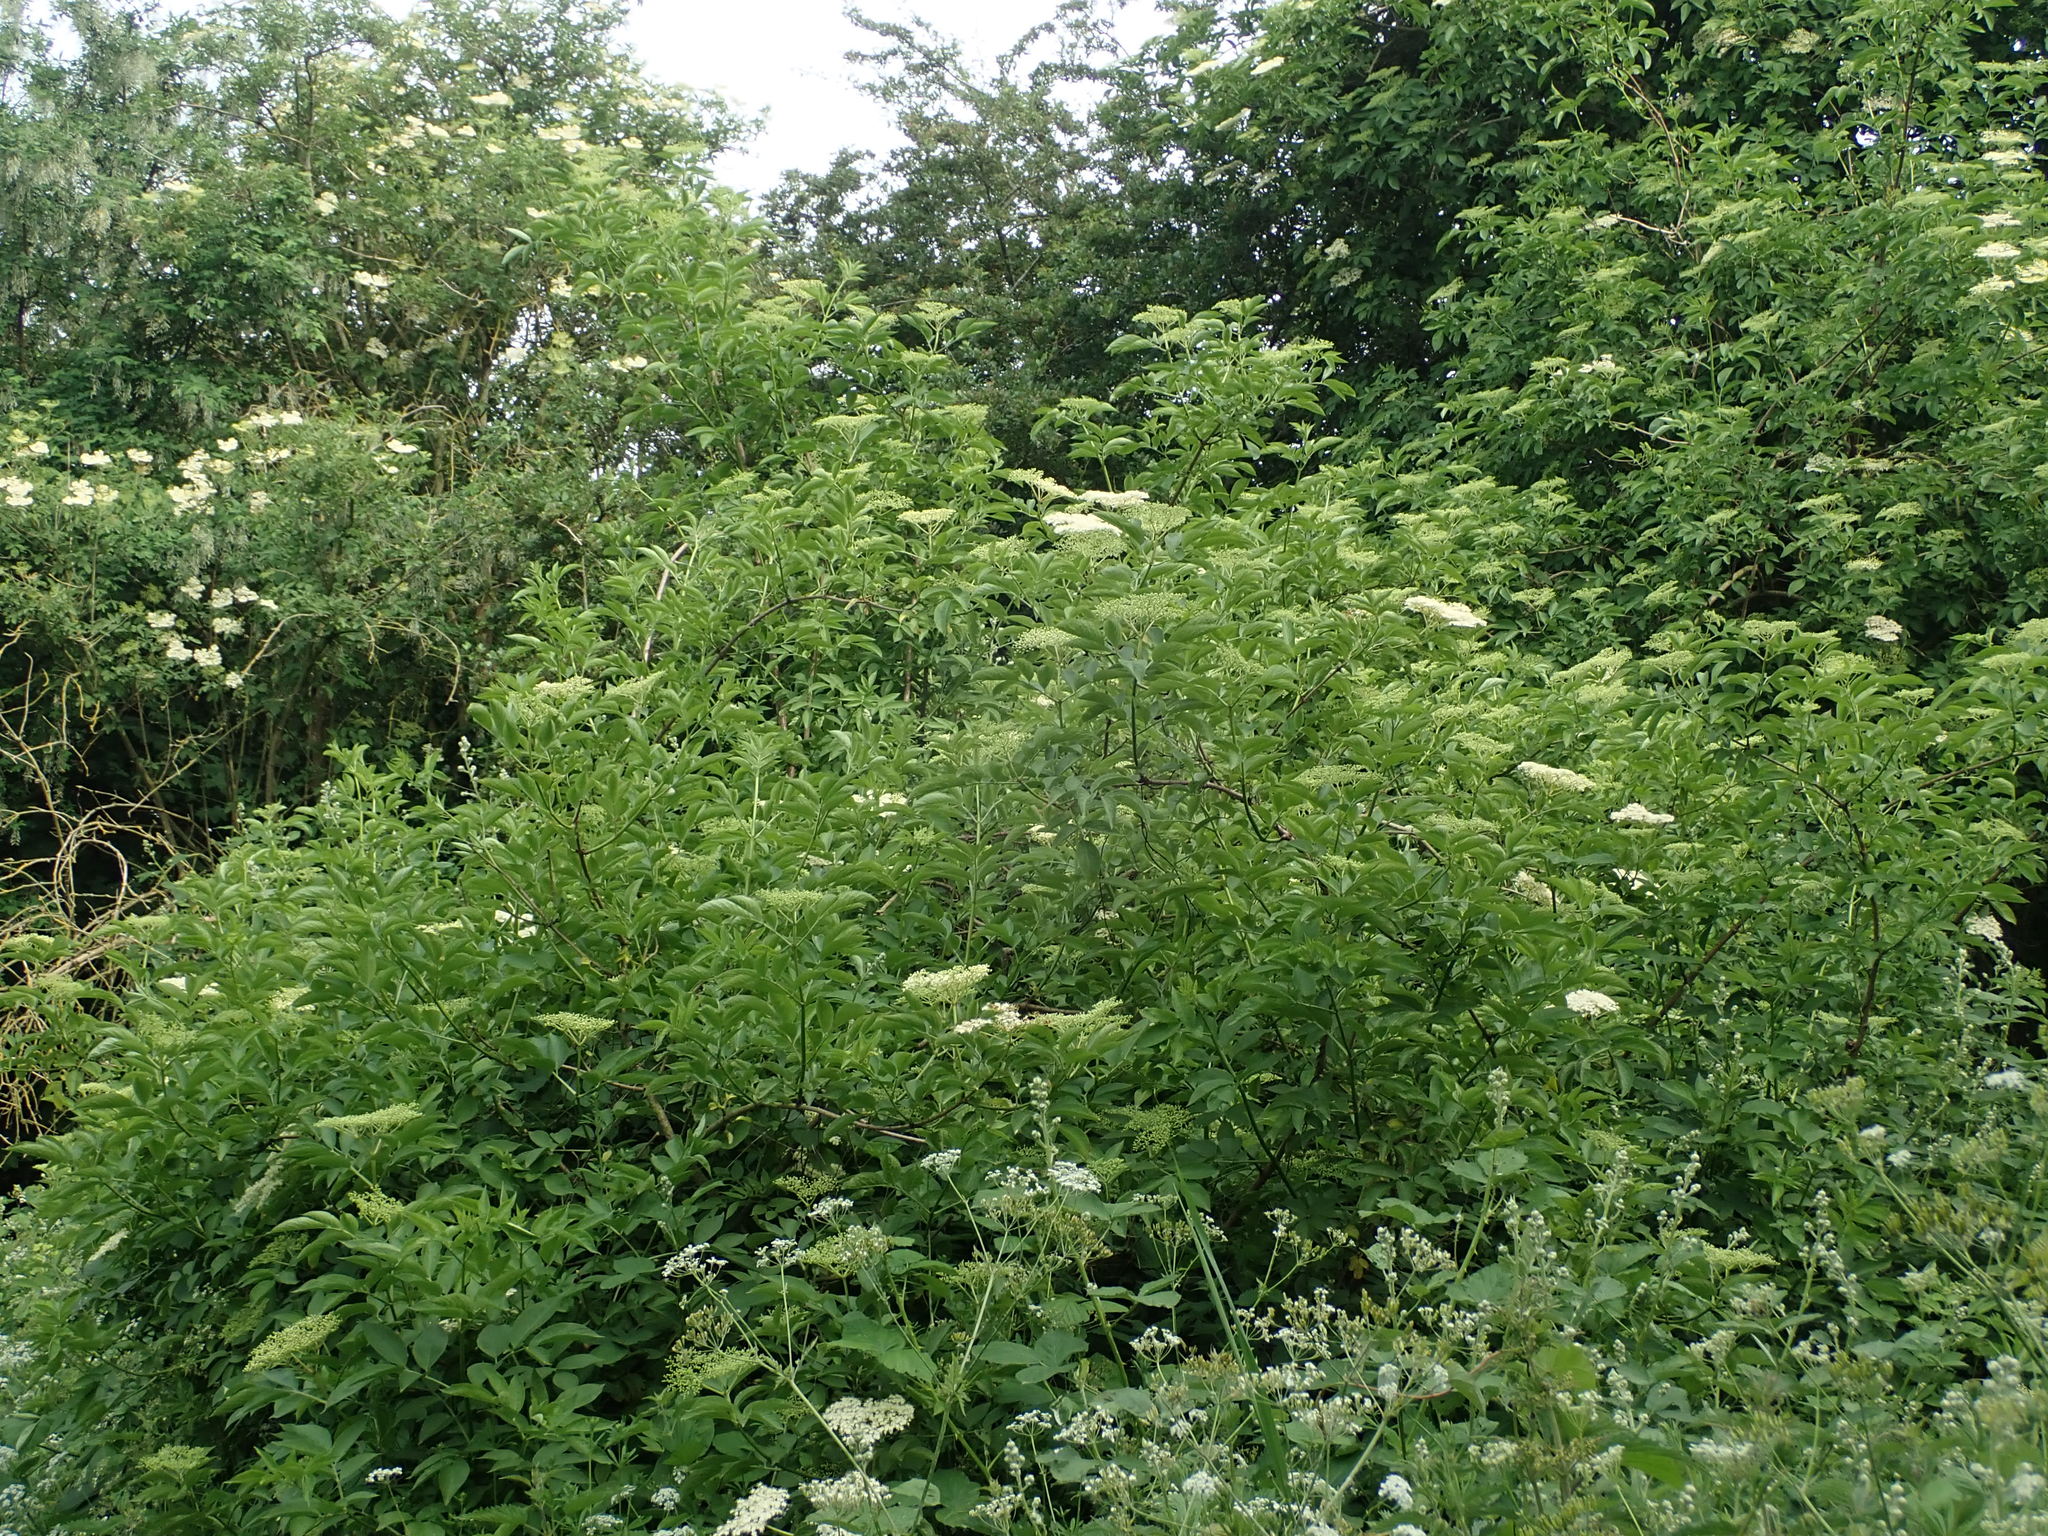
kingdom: Plantae
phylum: Tracheophyta
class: Magnoliopsida
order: Dipsacales
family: Viburnaceae
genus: Sambucus
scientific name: Sambucus nigra
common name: Elder
